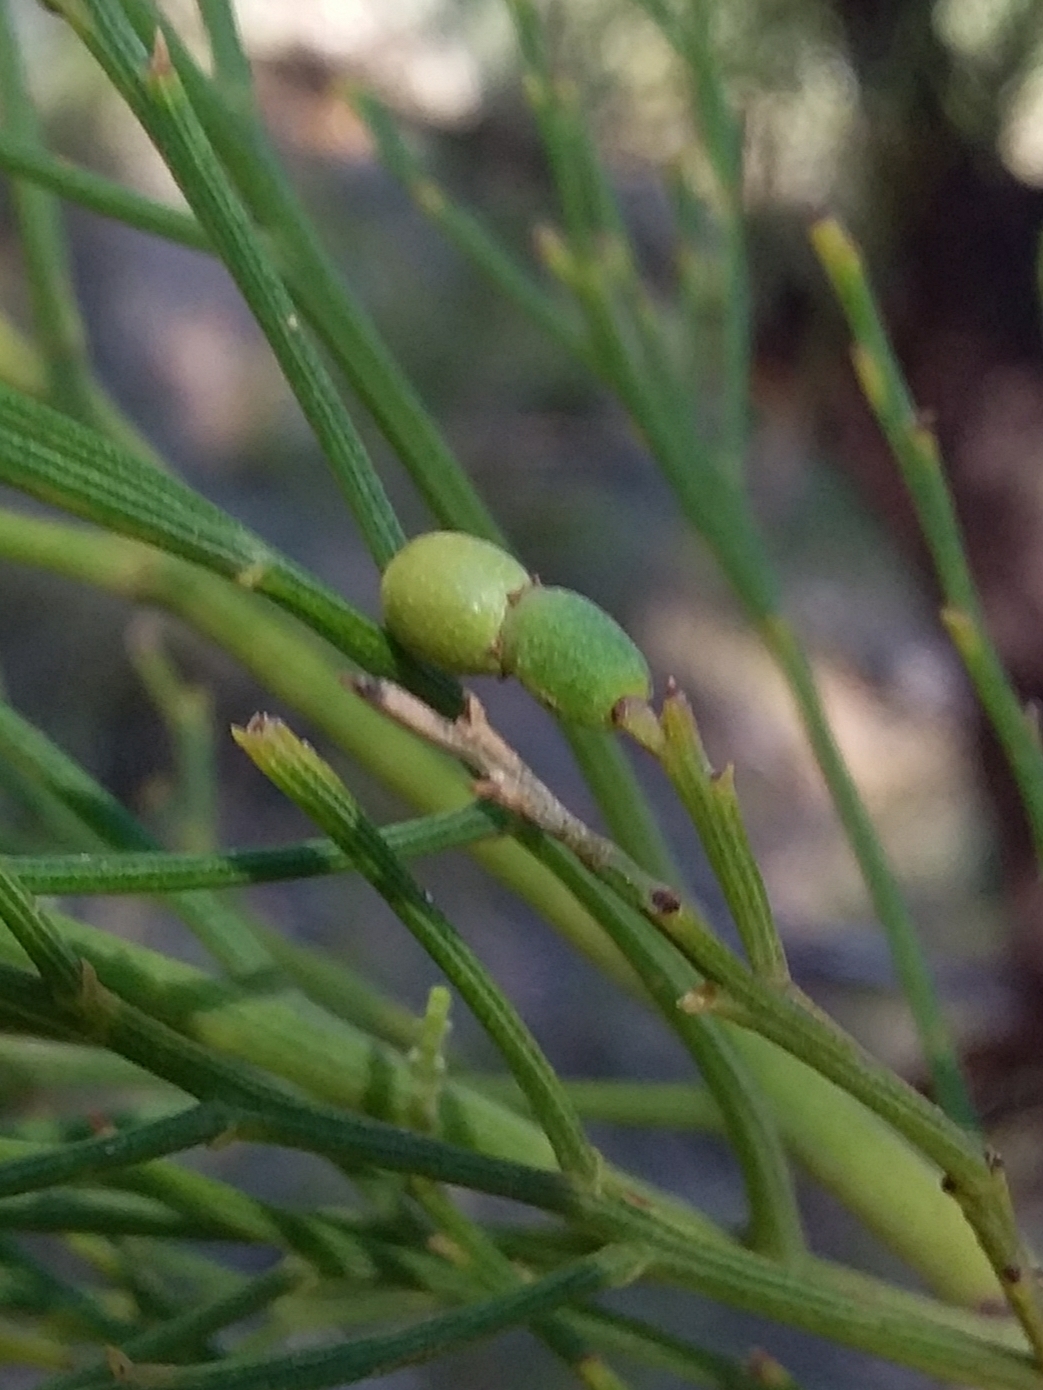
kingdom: Plantae
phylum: Tracheophyta
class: Magnoliopsida
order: Santalales
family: Santalaceae
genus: Exocarpos
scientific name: Exocarpos cupressiformis
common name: Cherry ballart
